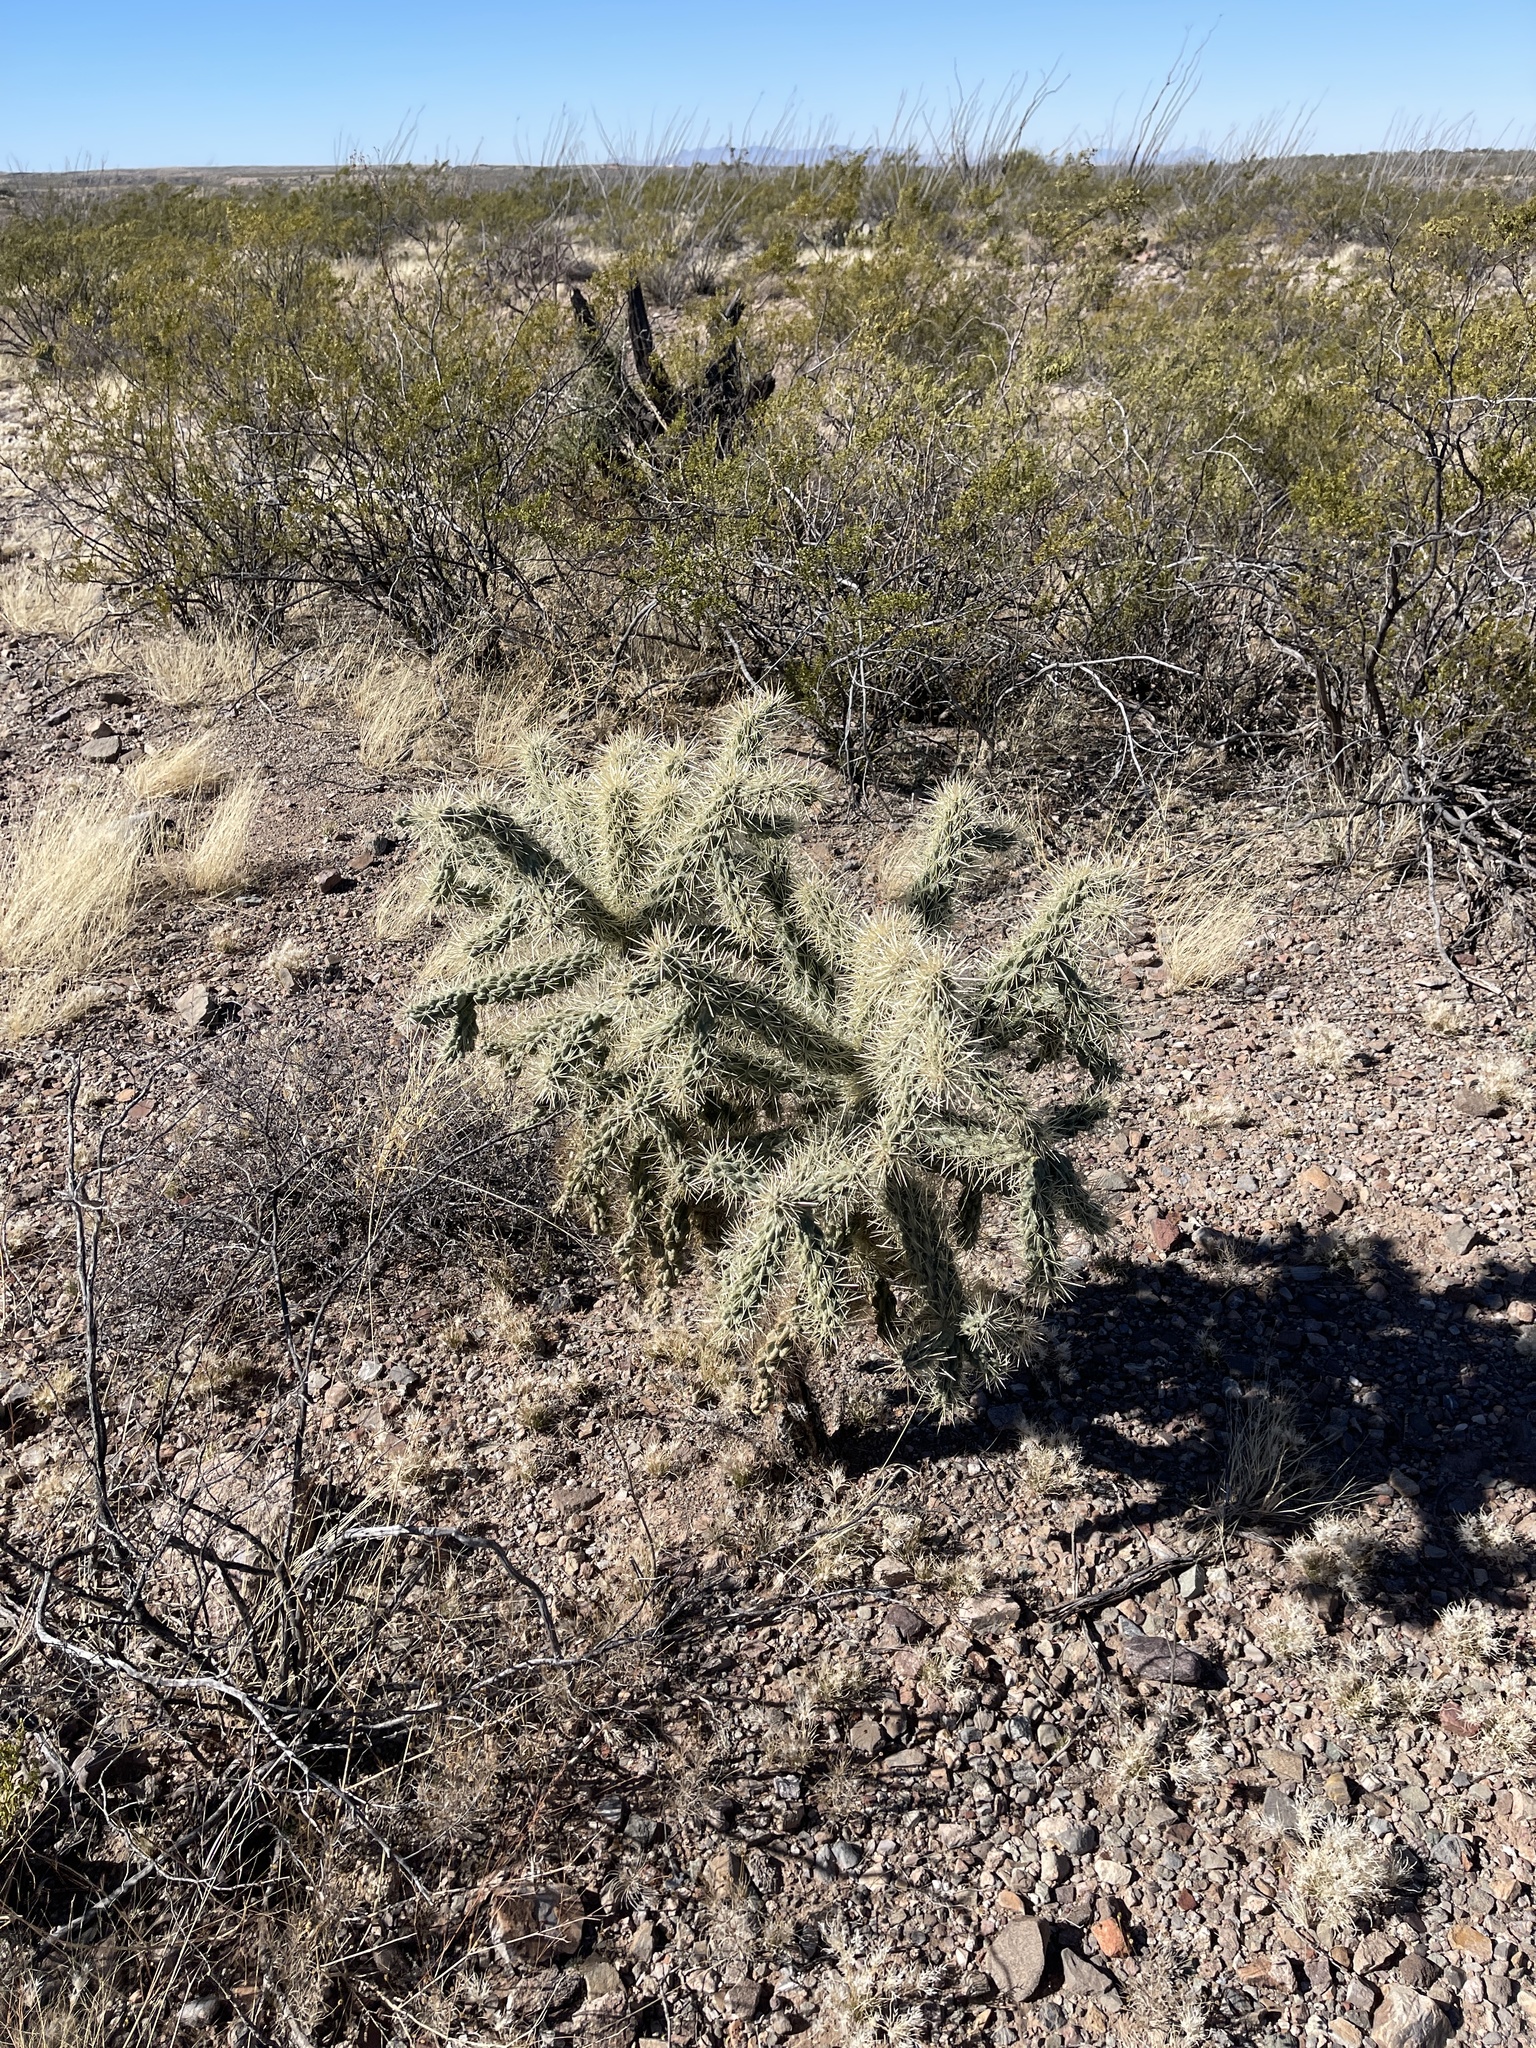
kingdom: Plantae
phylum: Tracheophyta
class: Magnoliopsida
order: Caryophyllales
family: Cactaceae
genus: Cylindropuntia
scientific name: Cylindropuntia fulgida
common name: Jumping cholla
